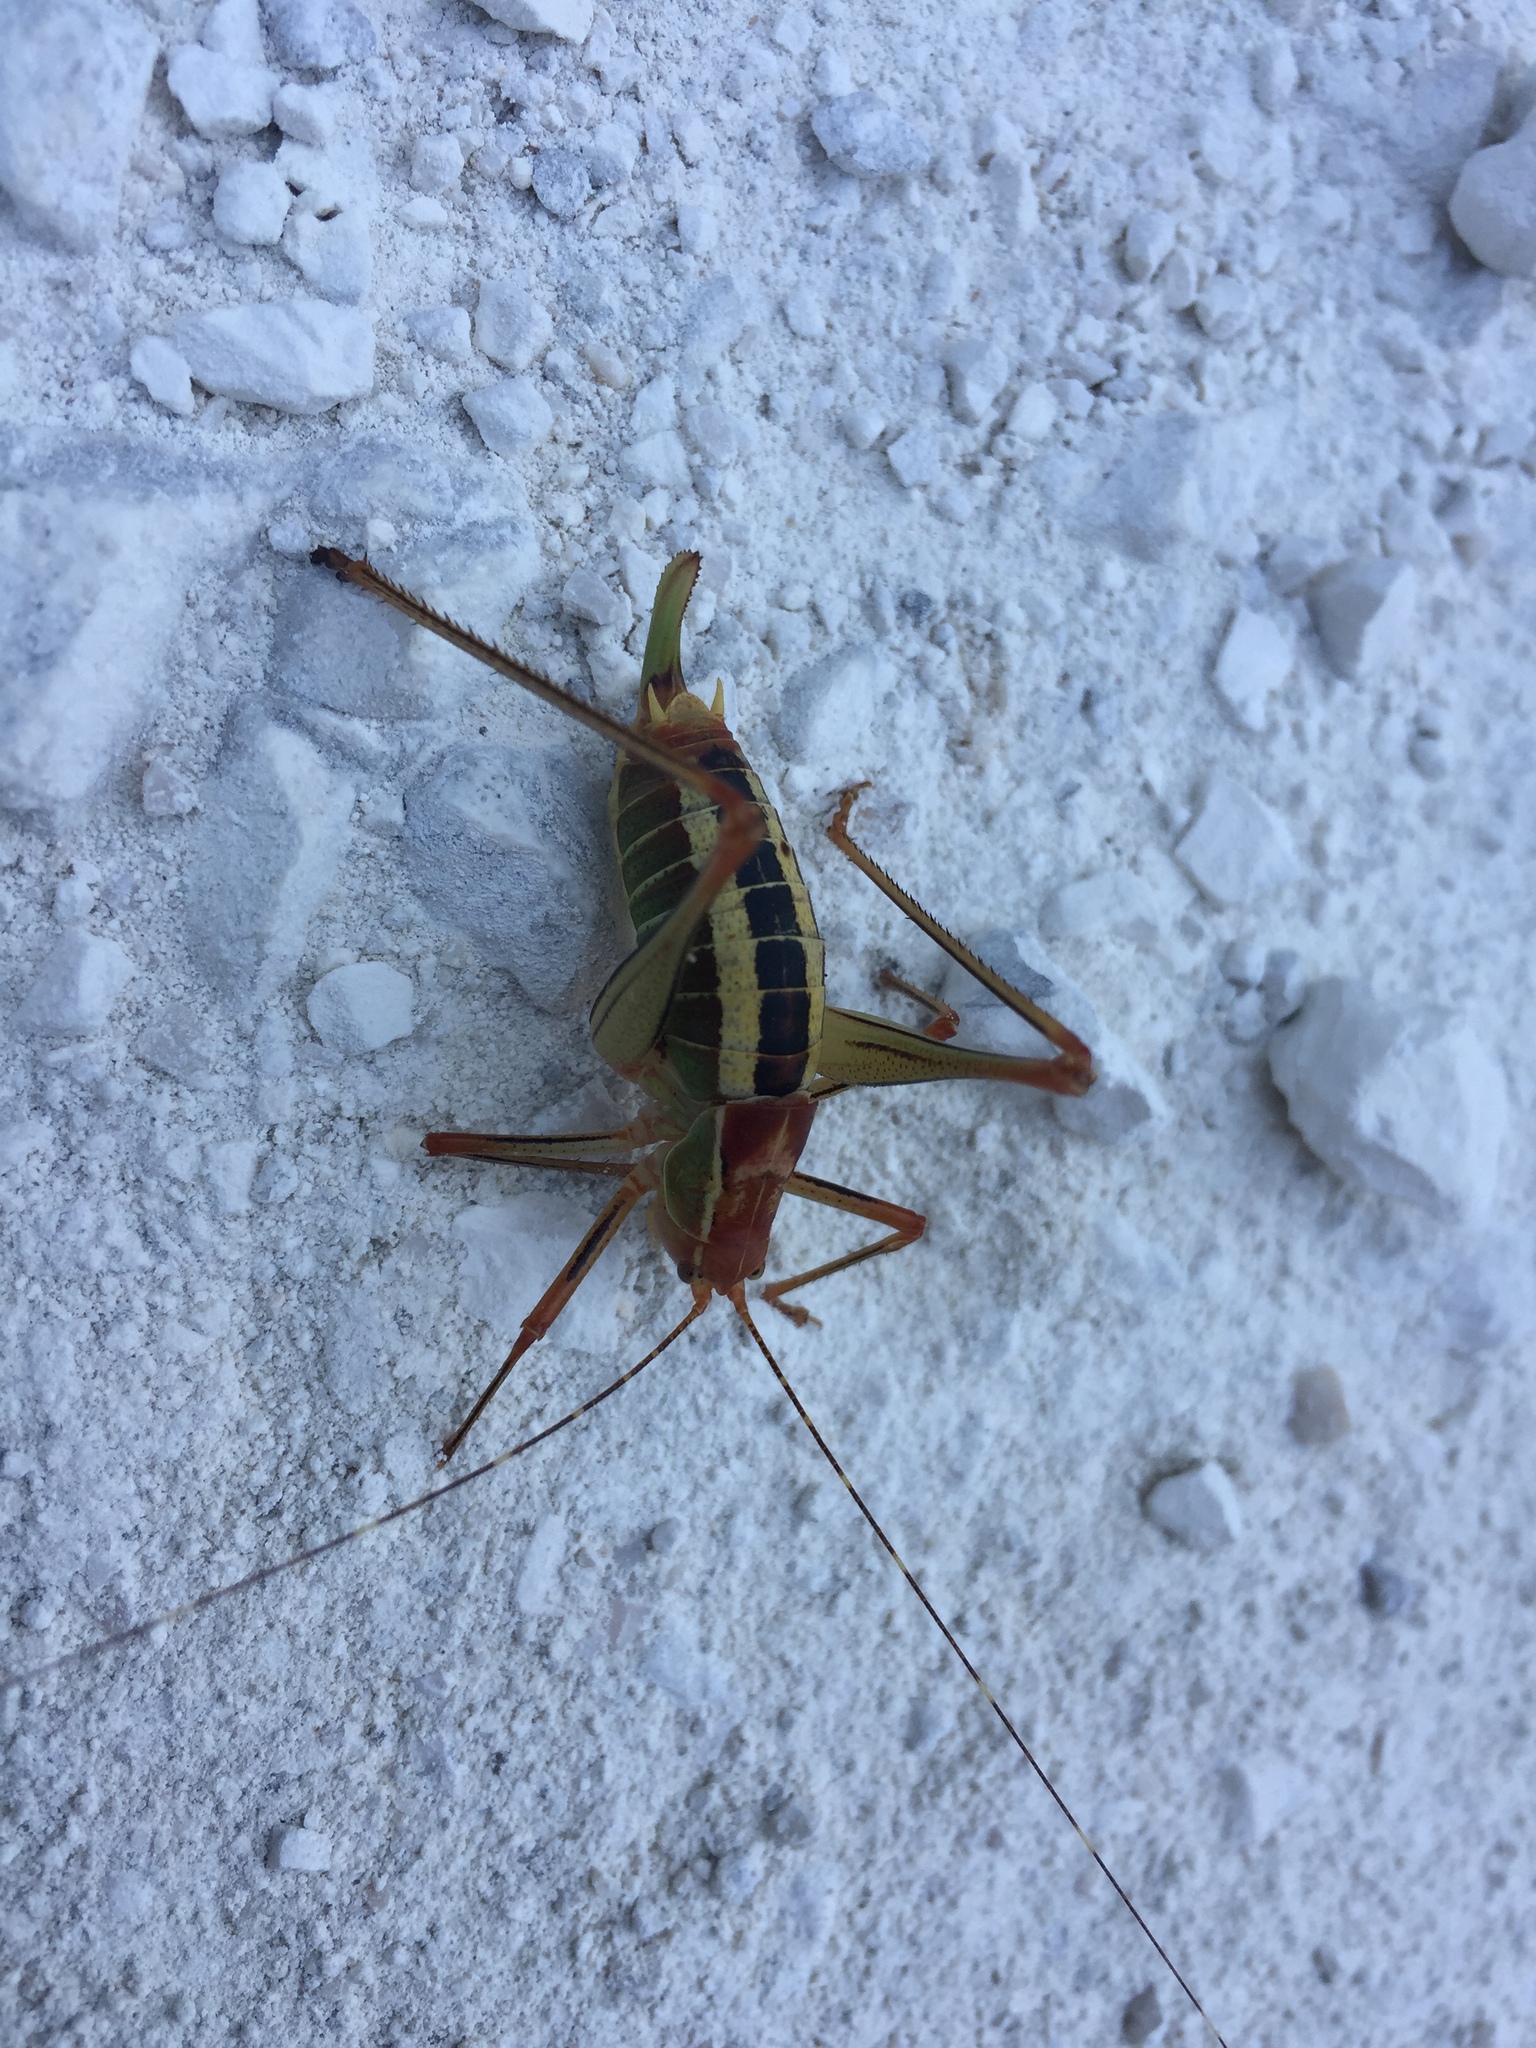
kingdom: Animalia
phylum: Arthropoda
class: Insecta
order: Orthoptera
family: Tettigoniidae
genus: Poecilimon
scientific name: Poecilimon jonicus
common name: Ionian bright bush-cricket
